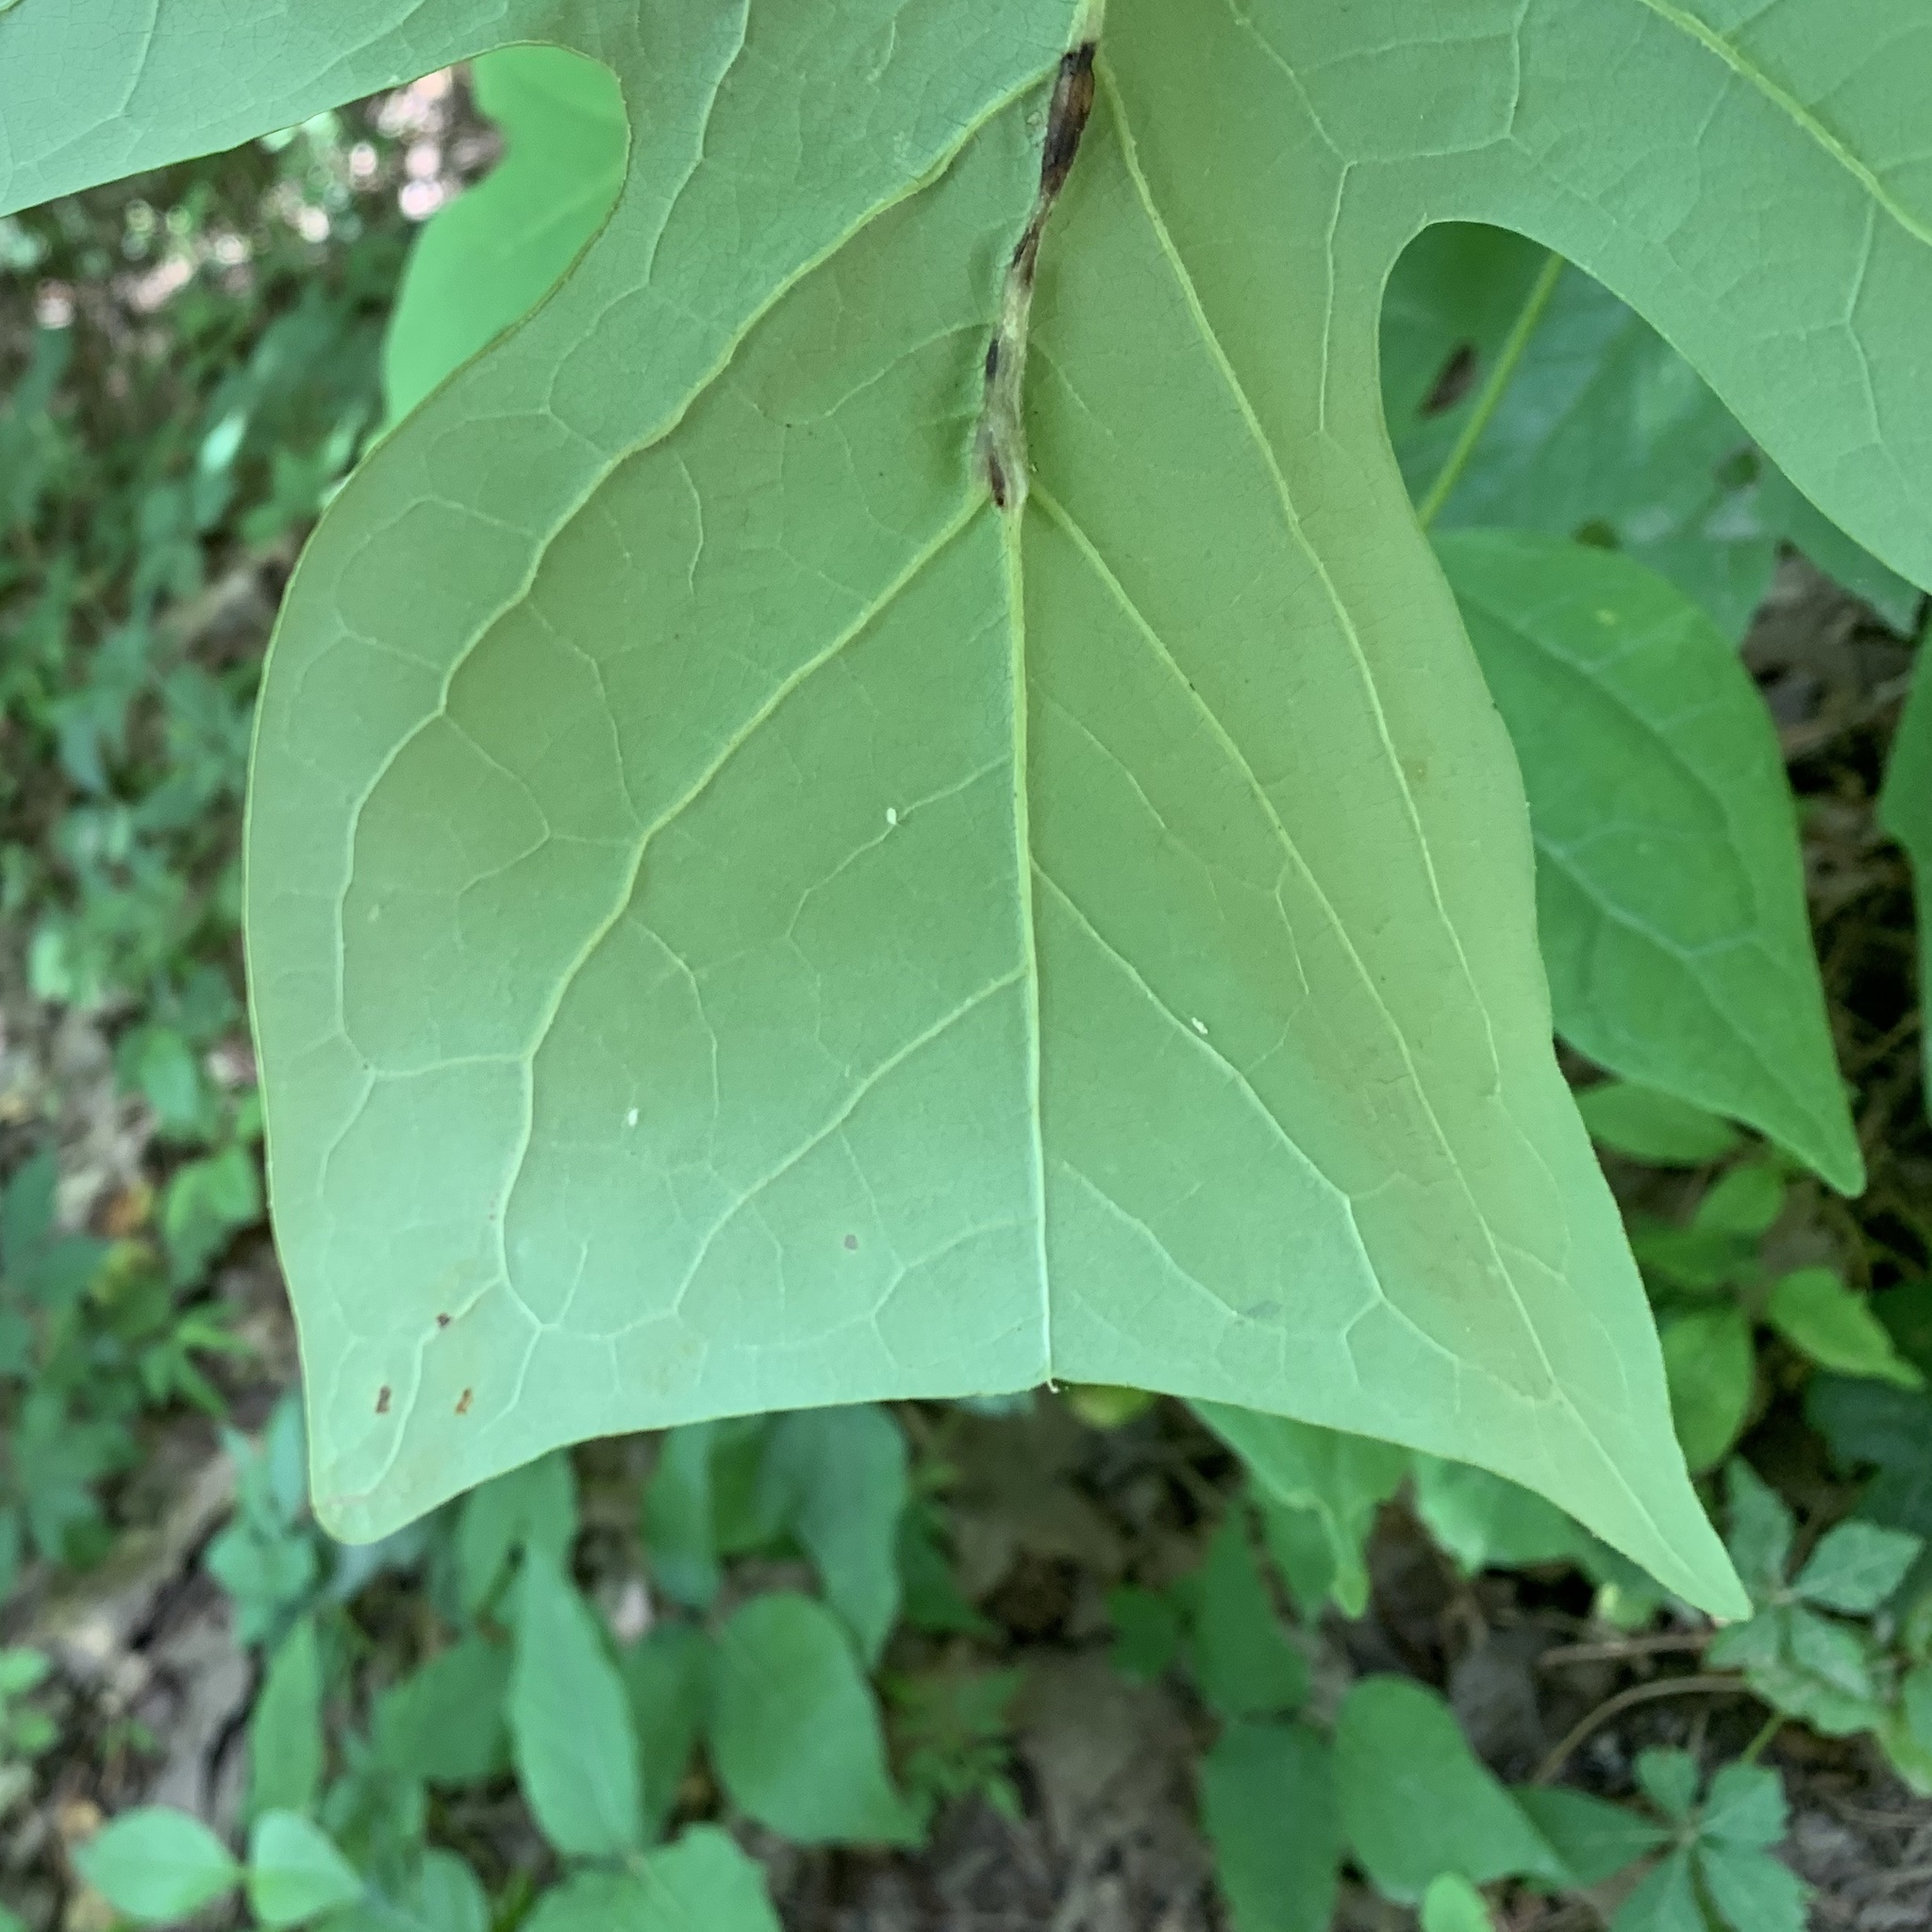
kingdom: Animalia
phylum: Arthropoda
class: Insecta
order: Lepidoptera
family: Gracillariidae
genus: Phyllocnistis
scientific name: Phyllocnistis liriodendronella
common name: Tulip tree leaf miner
